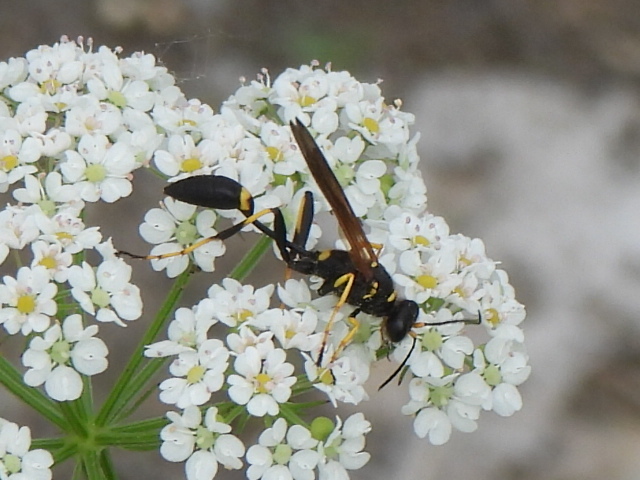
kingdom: Animalia
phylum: Arthropoda
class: Insecta
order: Hymenoptera
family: Sphecidae
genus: Sceliphron
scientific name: Sceliphron caementarium
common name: Mud dauber
